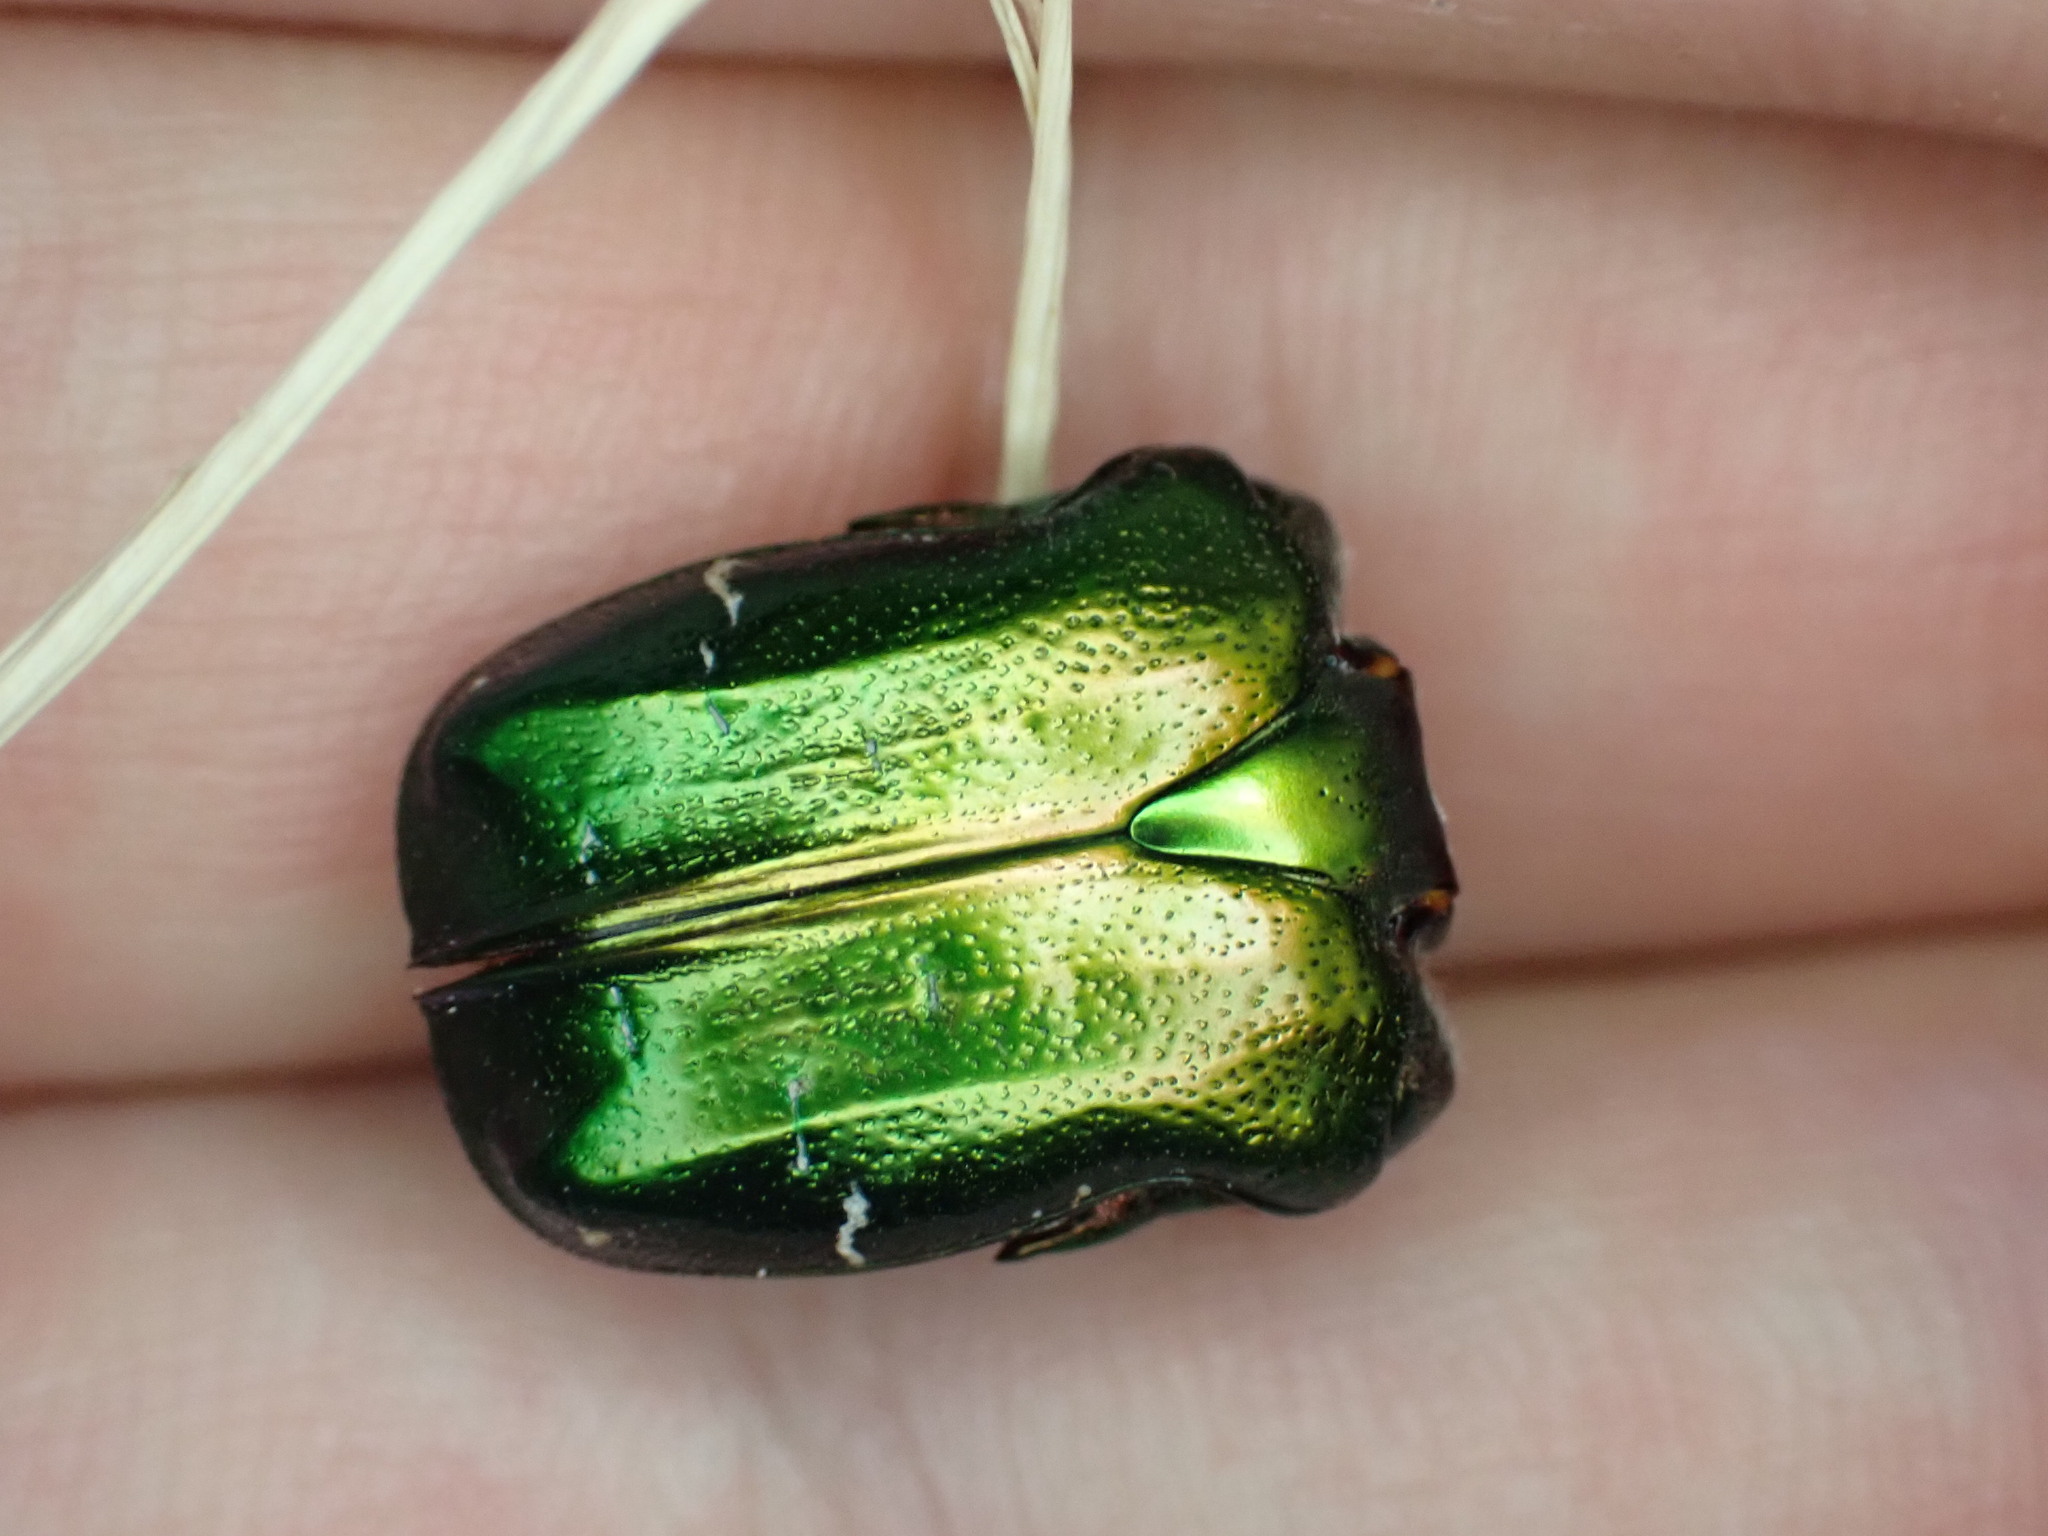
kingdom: Animalia
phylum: Arthropoda
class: Insecta
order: Coleoptera
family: Scarabaeidae
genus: Cetonia
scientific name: Cetonia aurata
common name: Rose chafer
